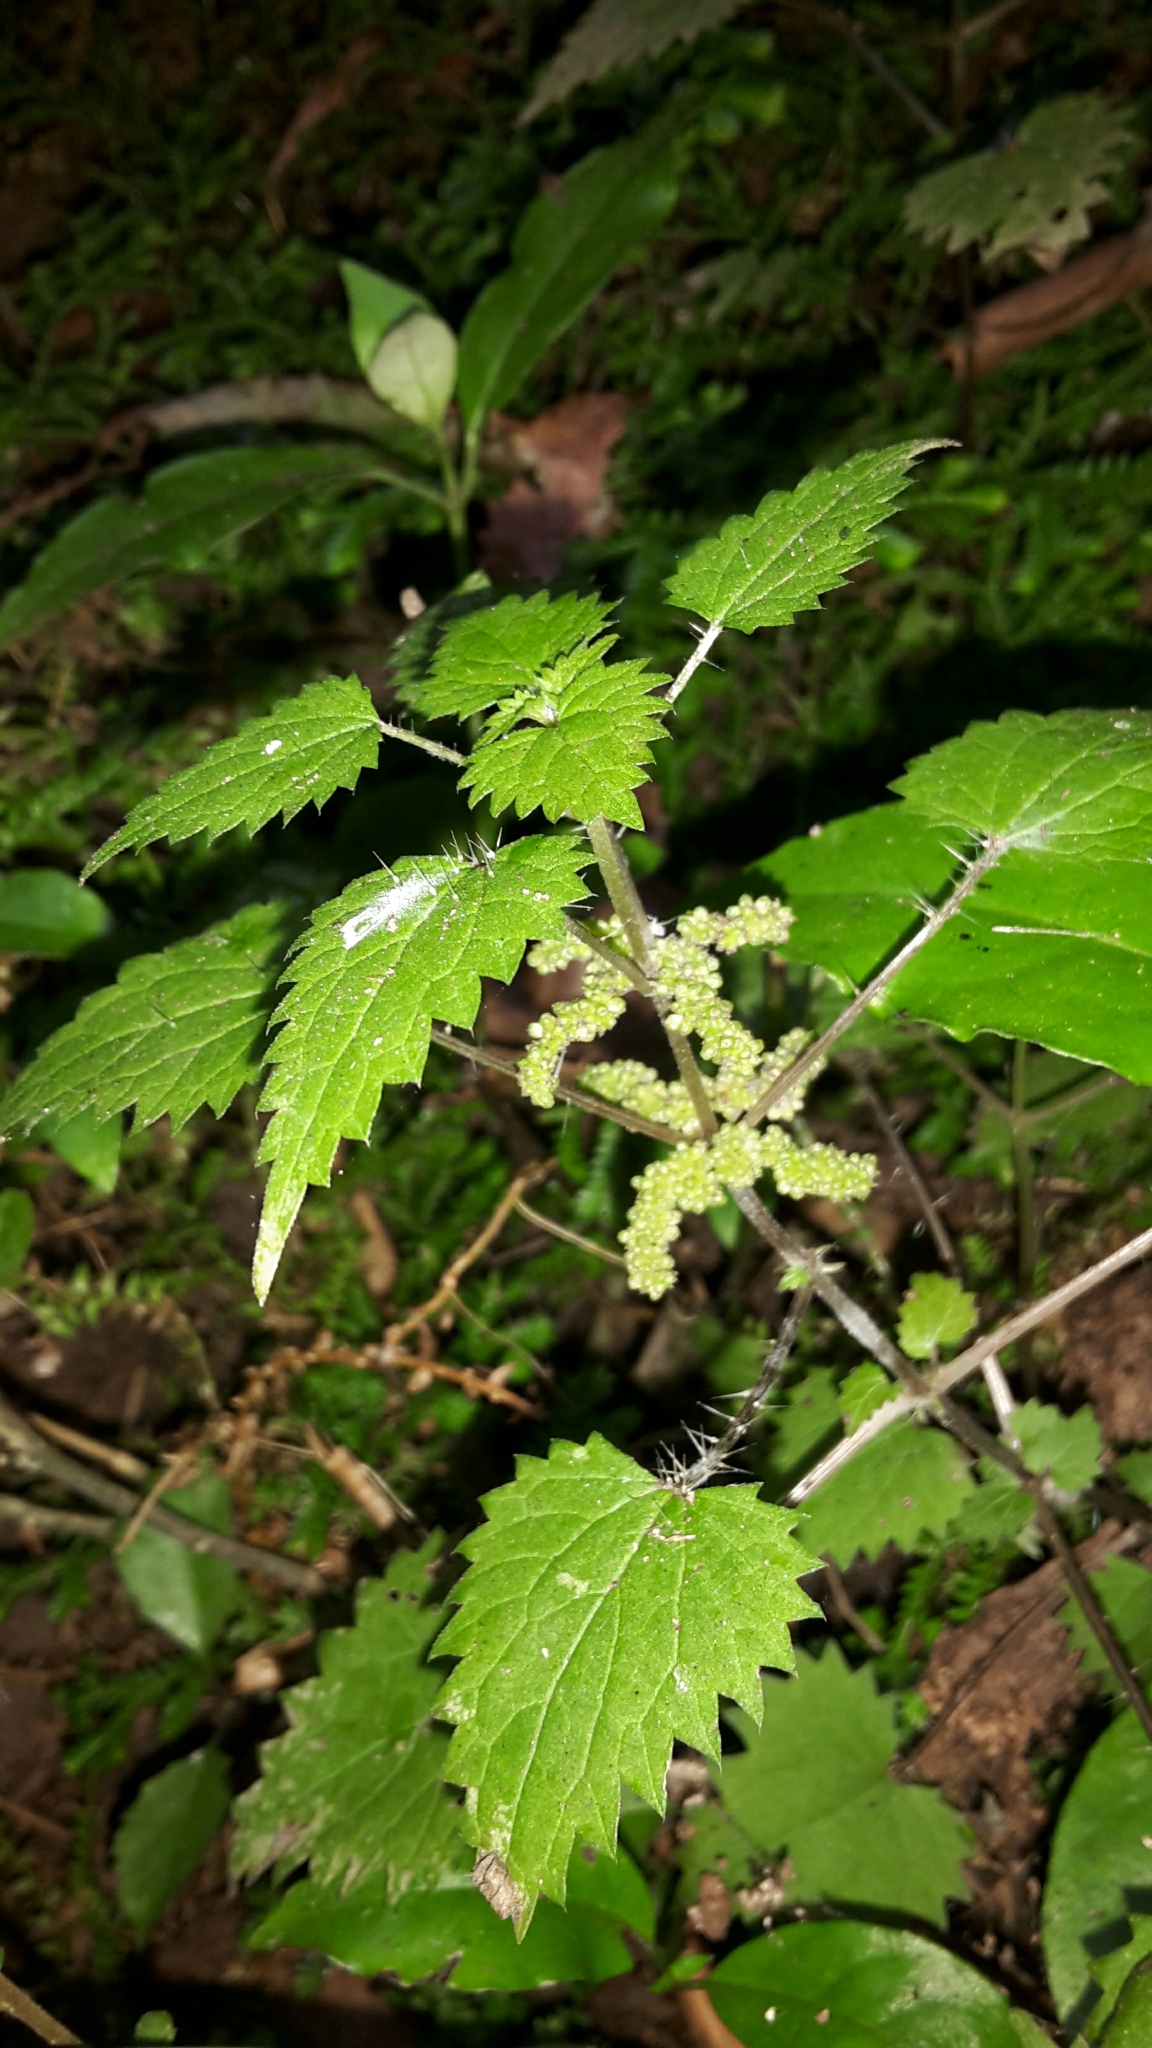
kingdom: Plantae
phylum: Tracheophyta
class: Magnoliopsida
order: Rosales
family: Urticaceae
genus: Urtica
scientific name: Urtica sykesii
